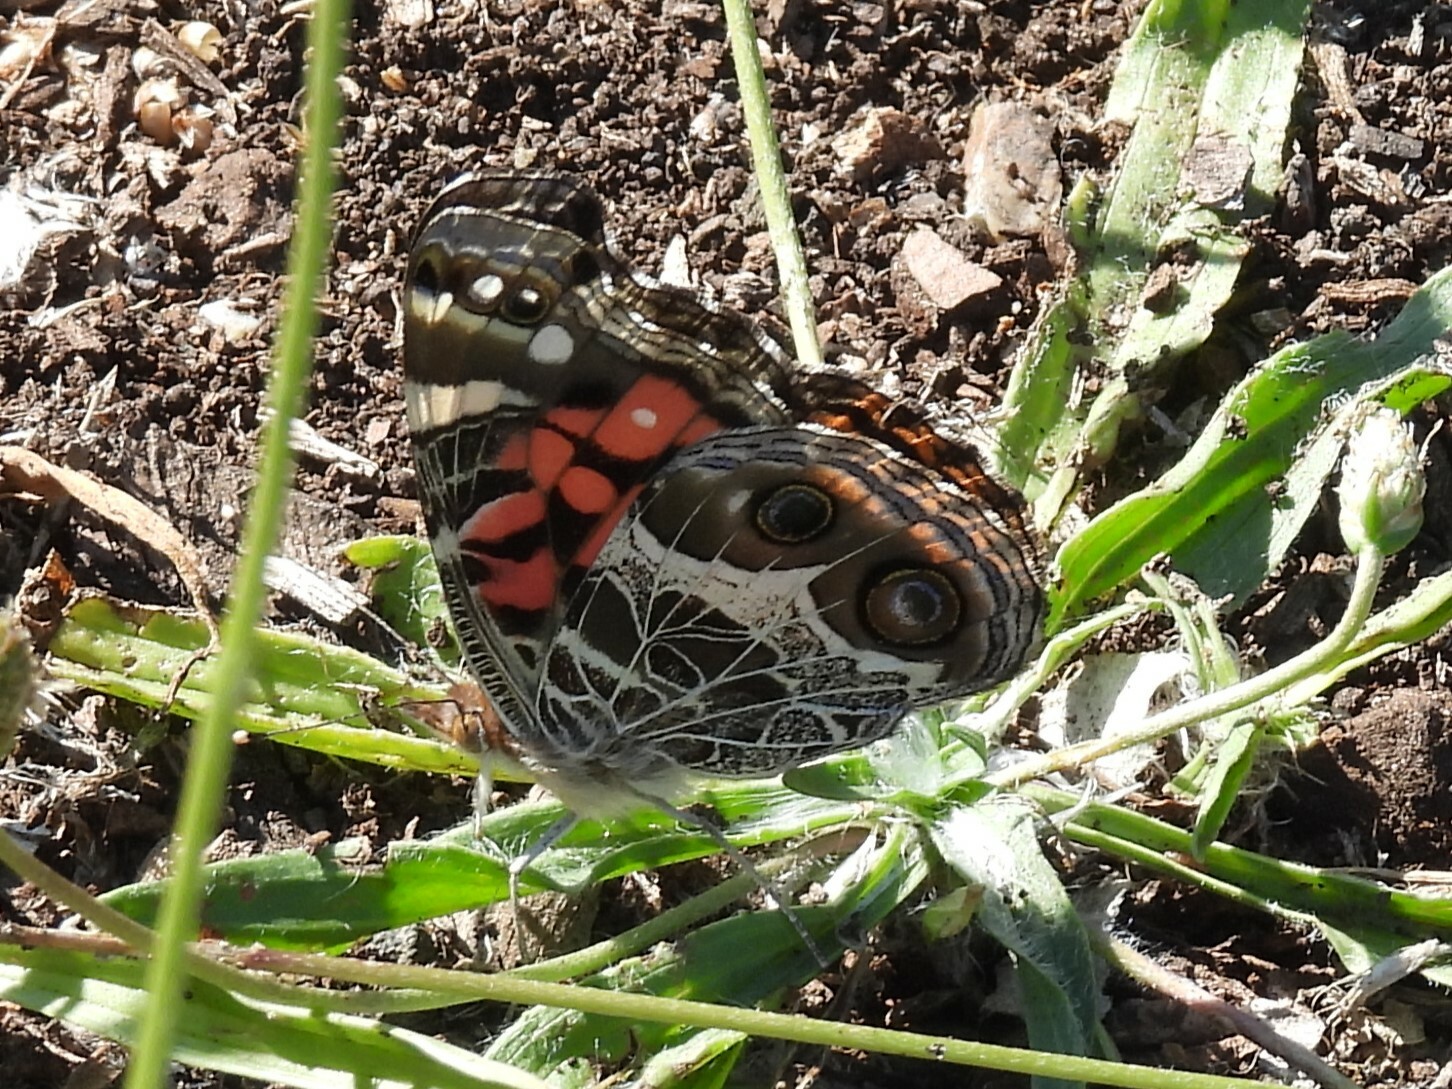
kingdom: Animalia
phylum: Arthropoda
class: Insecta
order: Lepidoptera
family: Nymphalidae
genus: Vanessa
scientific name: Vanessa virginiensis
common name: American lady
